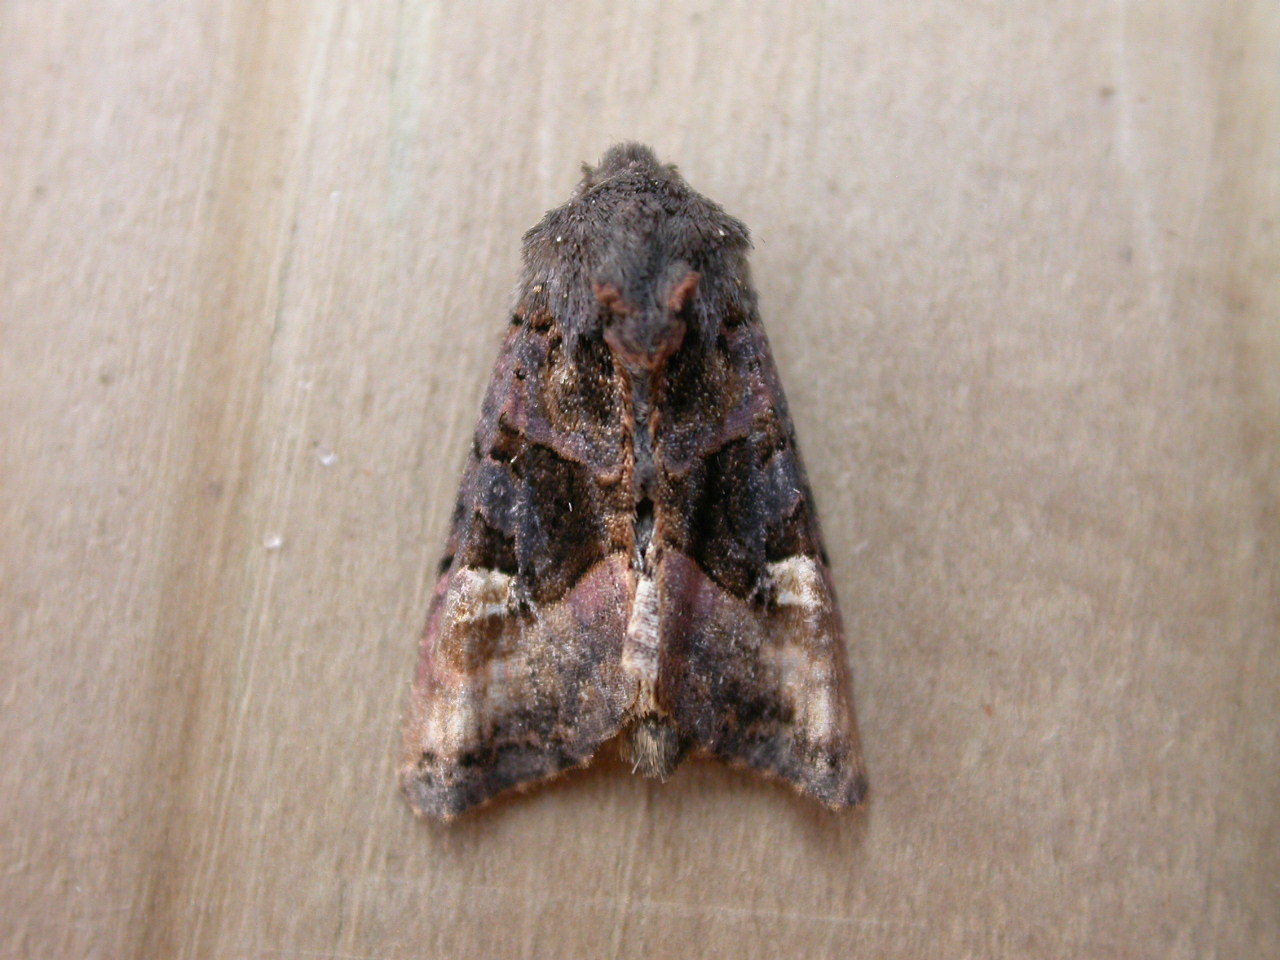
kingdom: Animalia
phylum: Arthropoda
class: Insecta
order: Lepidoptera
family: Noctuidae
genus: Euplexia
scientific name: Euplexia lucipara
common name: Small angle shades
